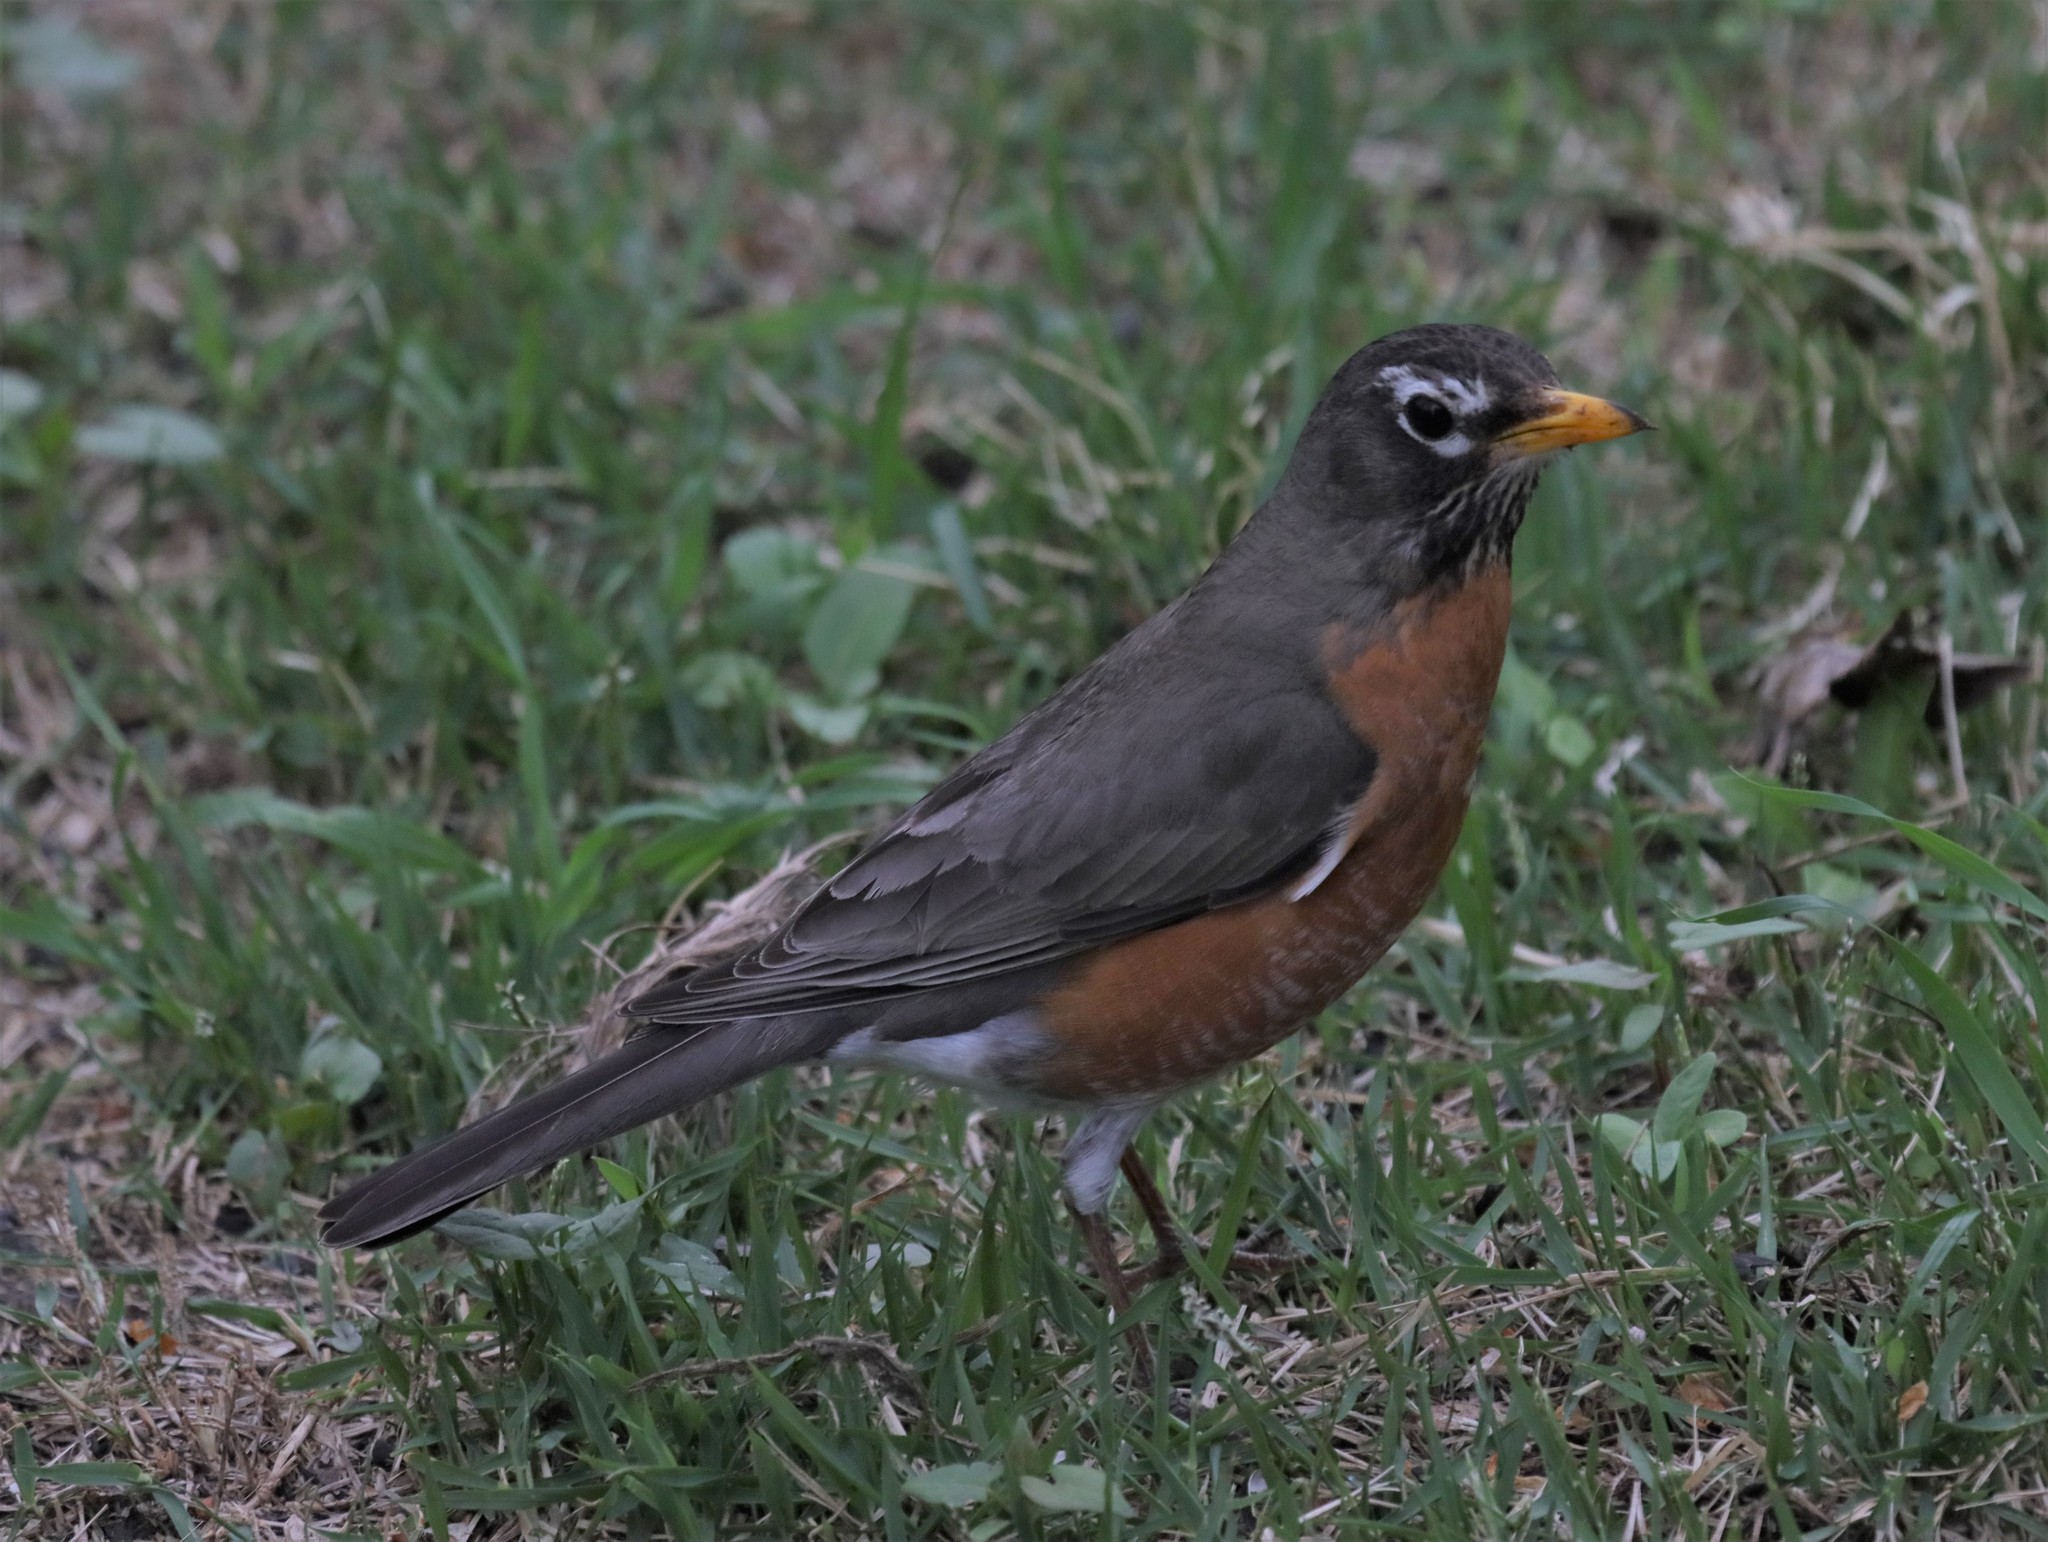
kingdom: Animalia
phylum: Chordata
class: Aves
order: Passeriformes
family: Turdidae
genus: Turdus
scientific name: Turdus migratorius
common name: American robin
